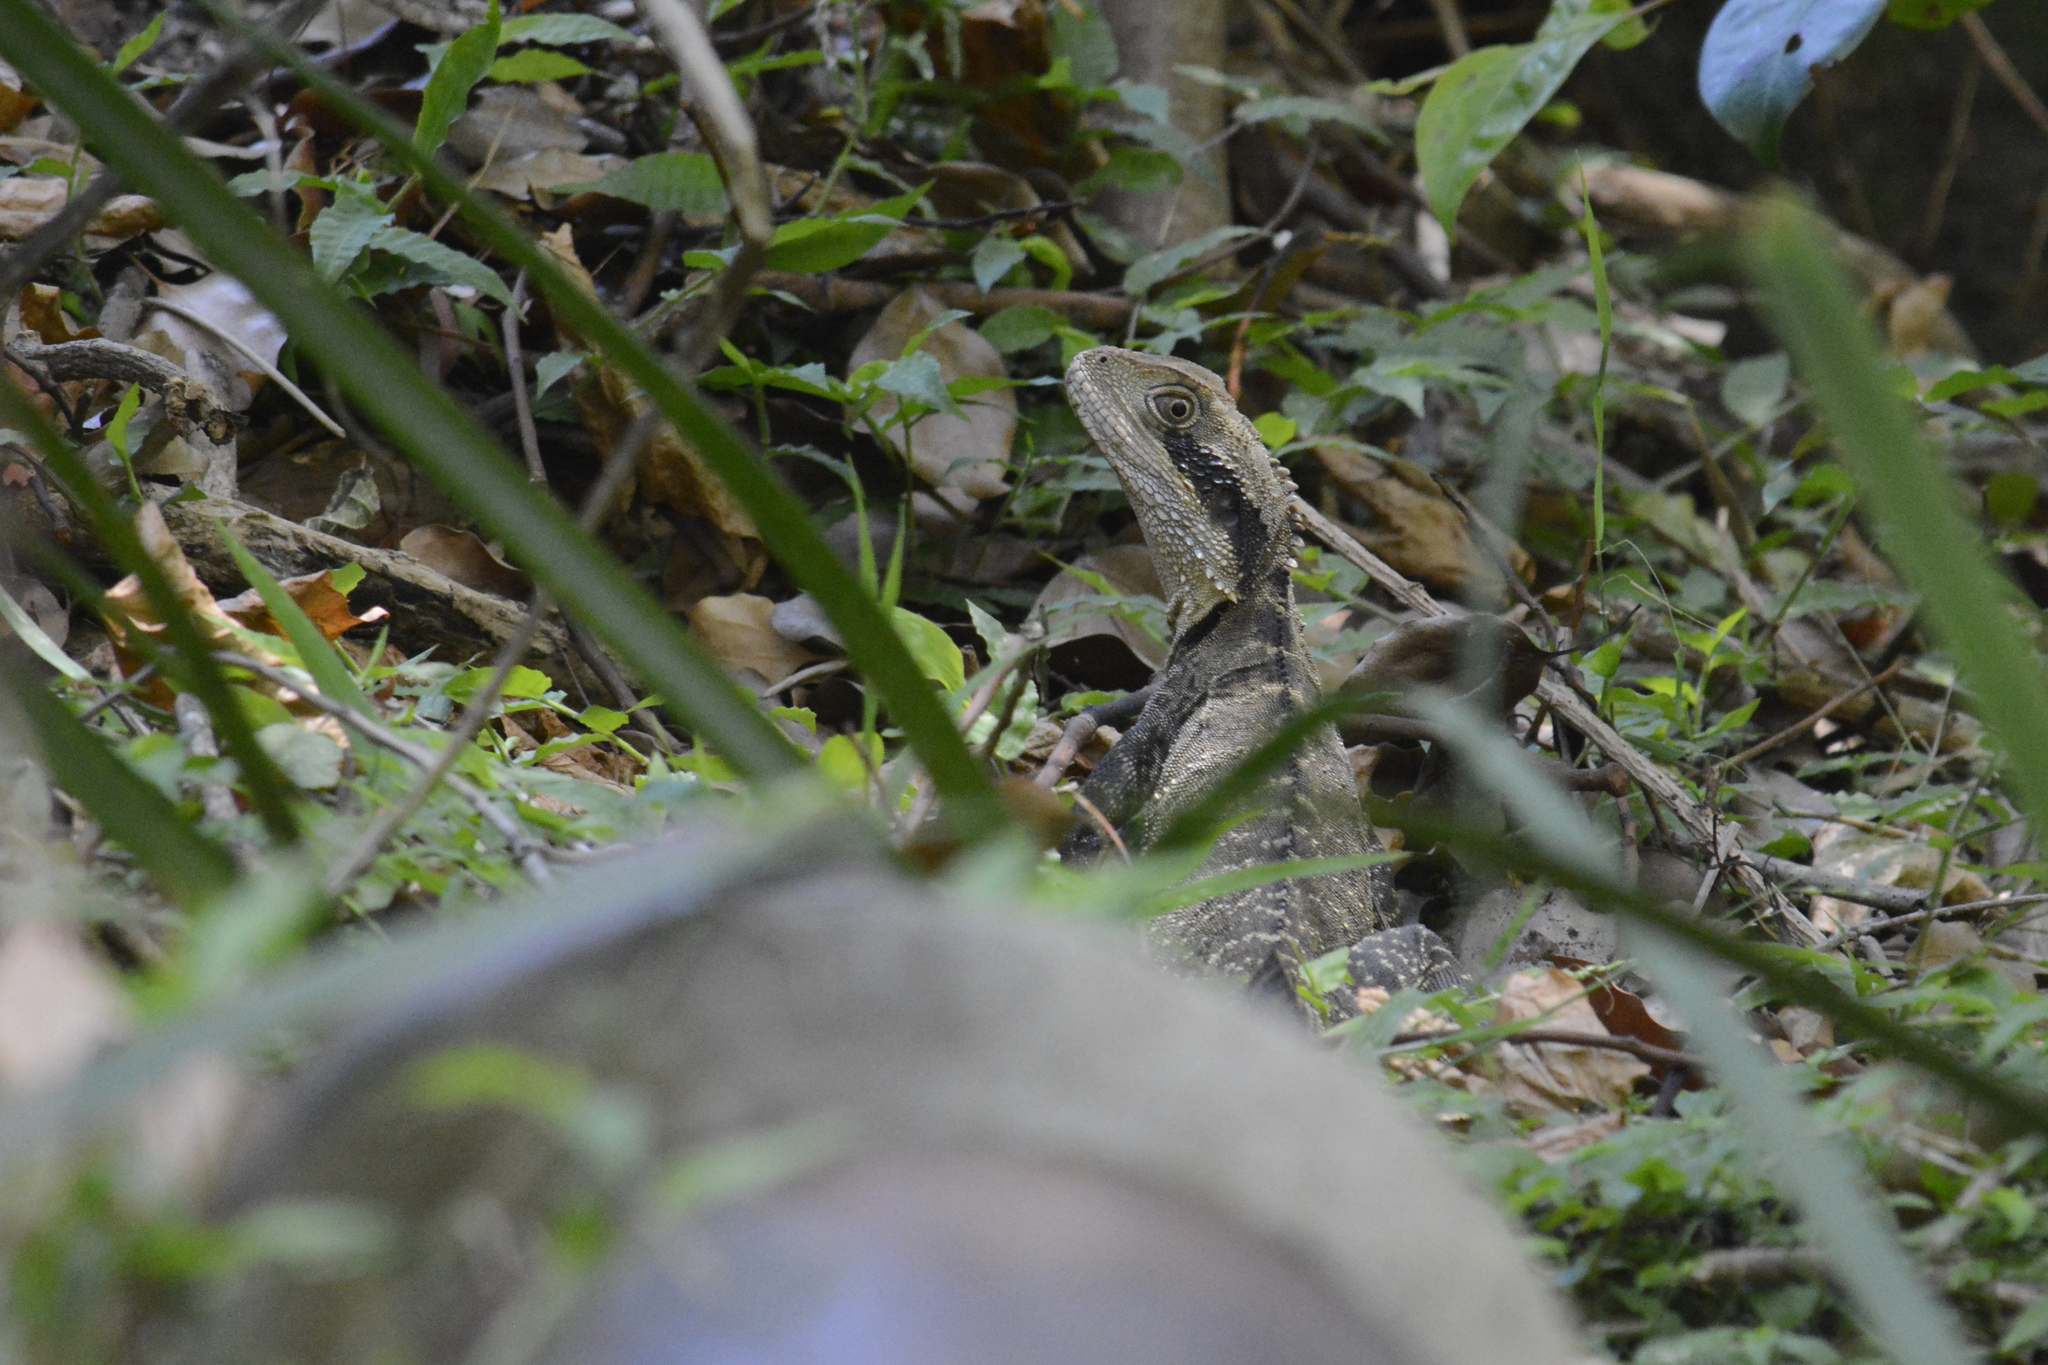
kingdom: Animalia
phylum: Chordata
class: Squamata
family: Agamidae
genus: Intellagama
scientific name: Intellagama lesueurii
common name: Eastern water dragon
